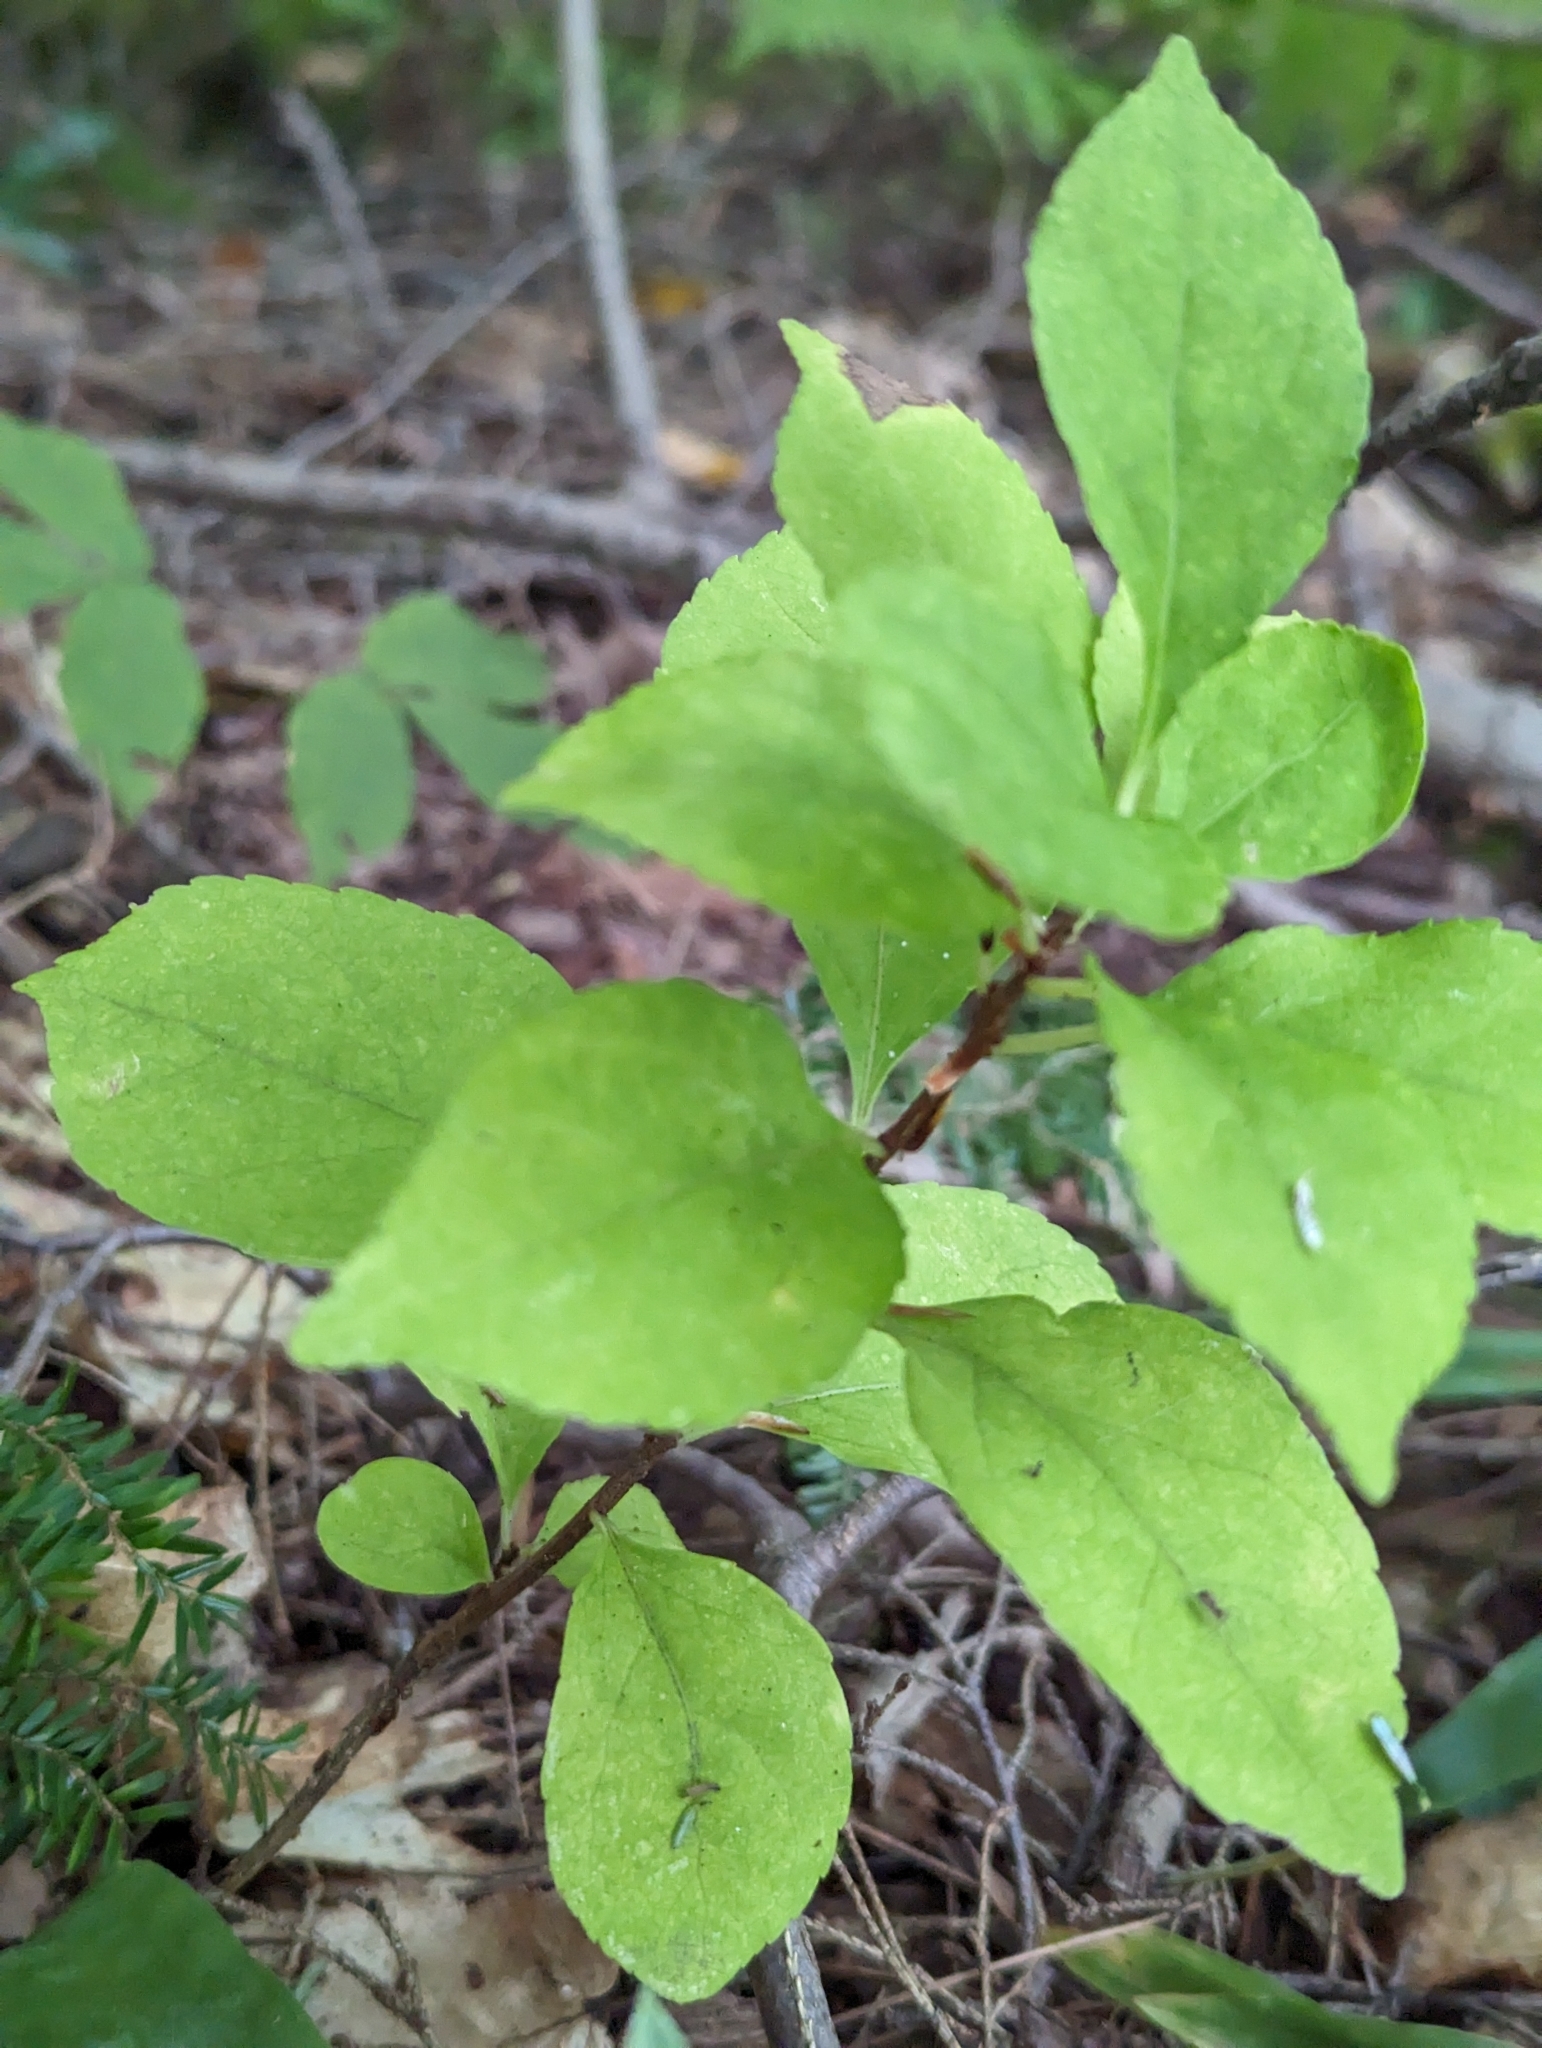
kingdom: Plantae
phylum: Tracheophyta
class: Magnoliopsida
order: Celastrales
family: Celastraceae
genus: Celastrus
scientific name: Celastrus orbiculatus
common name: Oriental bittersweet
